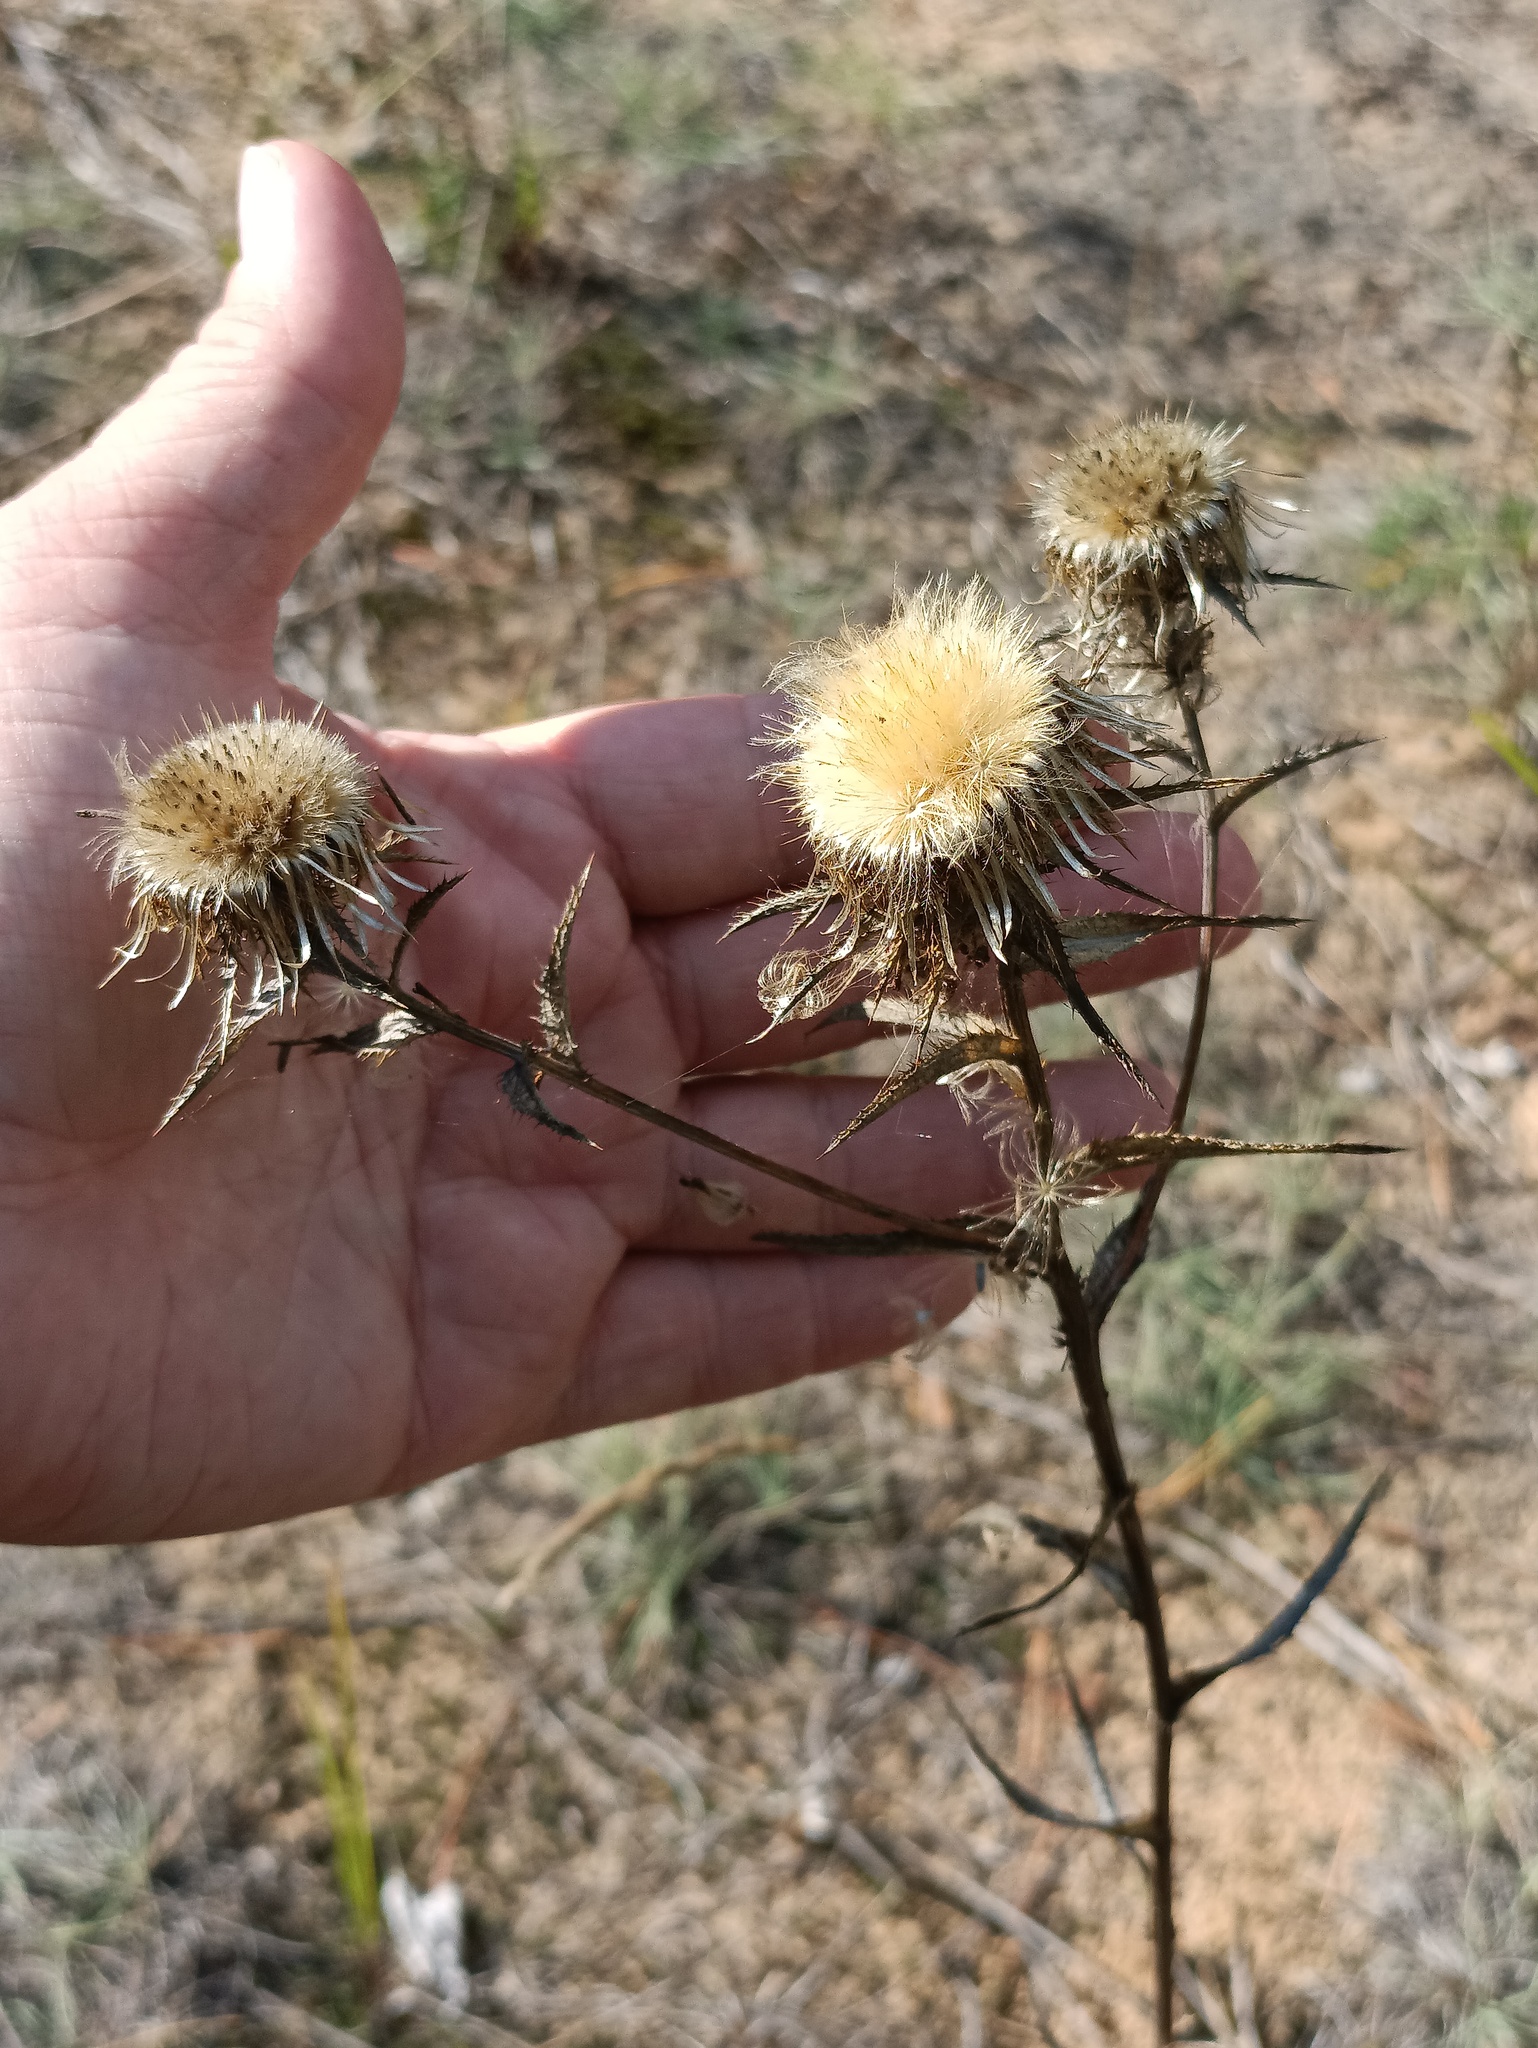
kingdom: Plantae
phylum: Tracheophyta
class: Magnoliopsida
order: Asterales
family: Asteraceae
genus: Carlina
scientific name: Carlina biebersteinii
